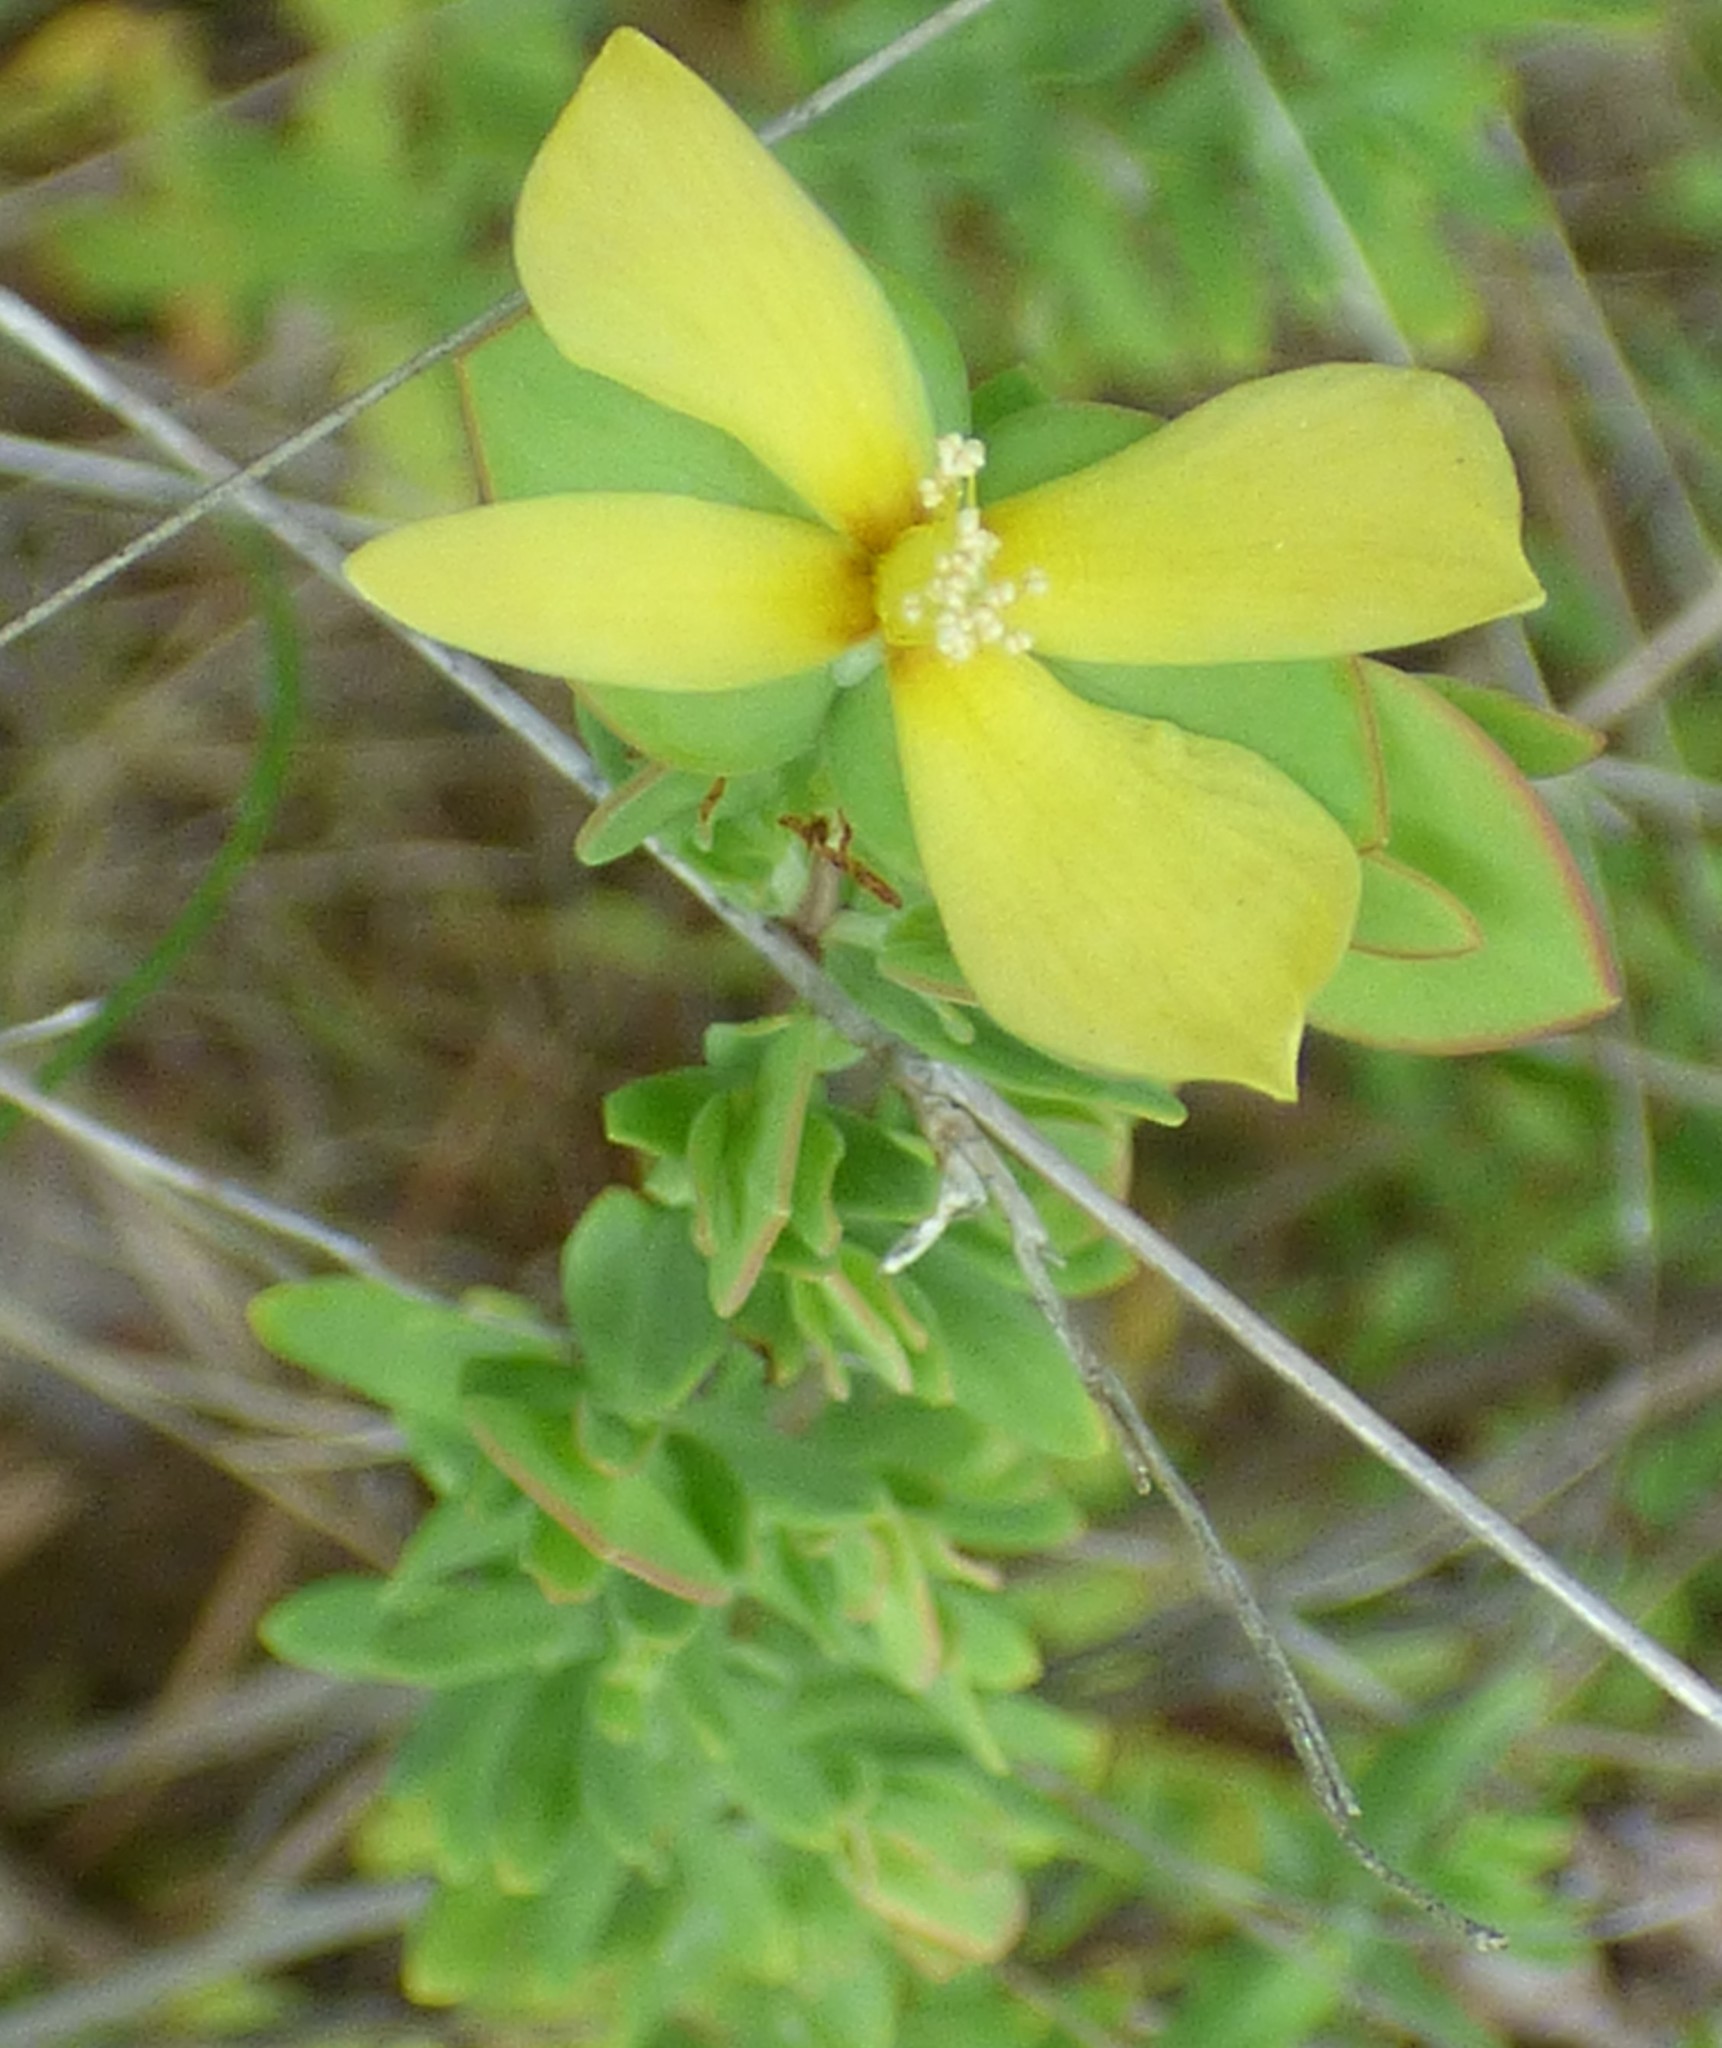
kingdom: Plantae
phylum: Tracheophyta
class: Magnoliopsida
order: Malpighiales
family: Hypericaceae
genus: Hypericum
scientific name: Hypericum hypericoides
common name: St. andrew's cross
